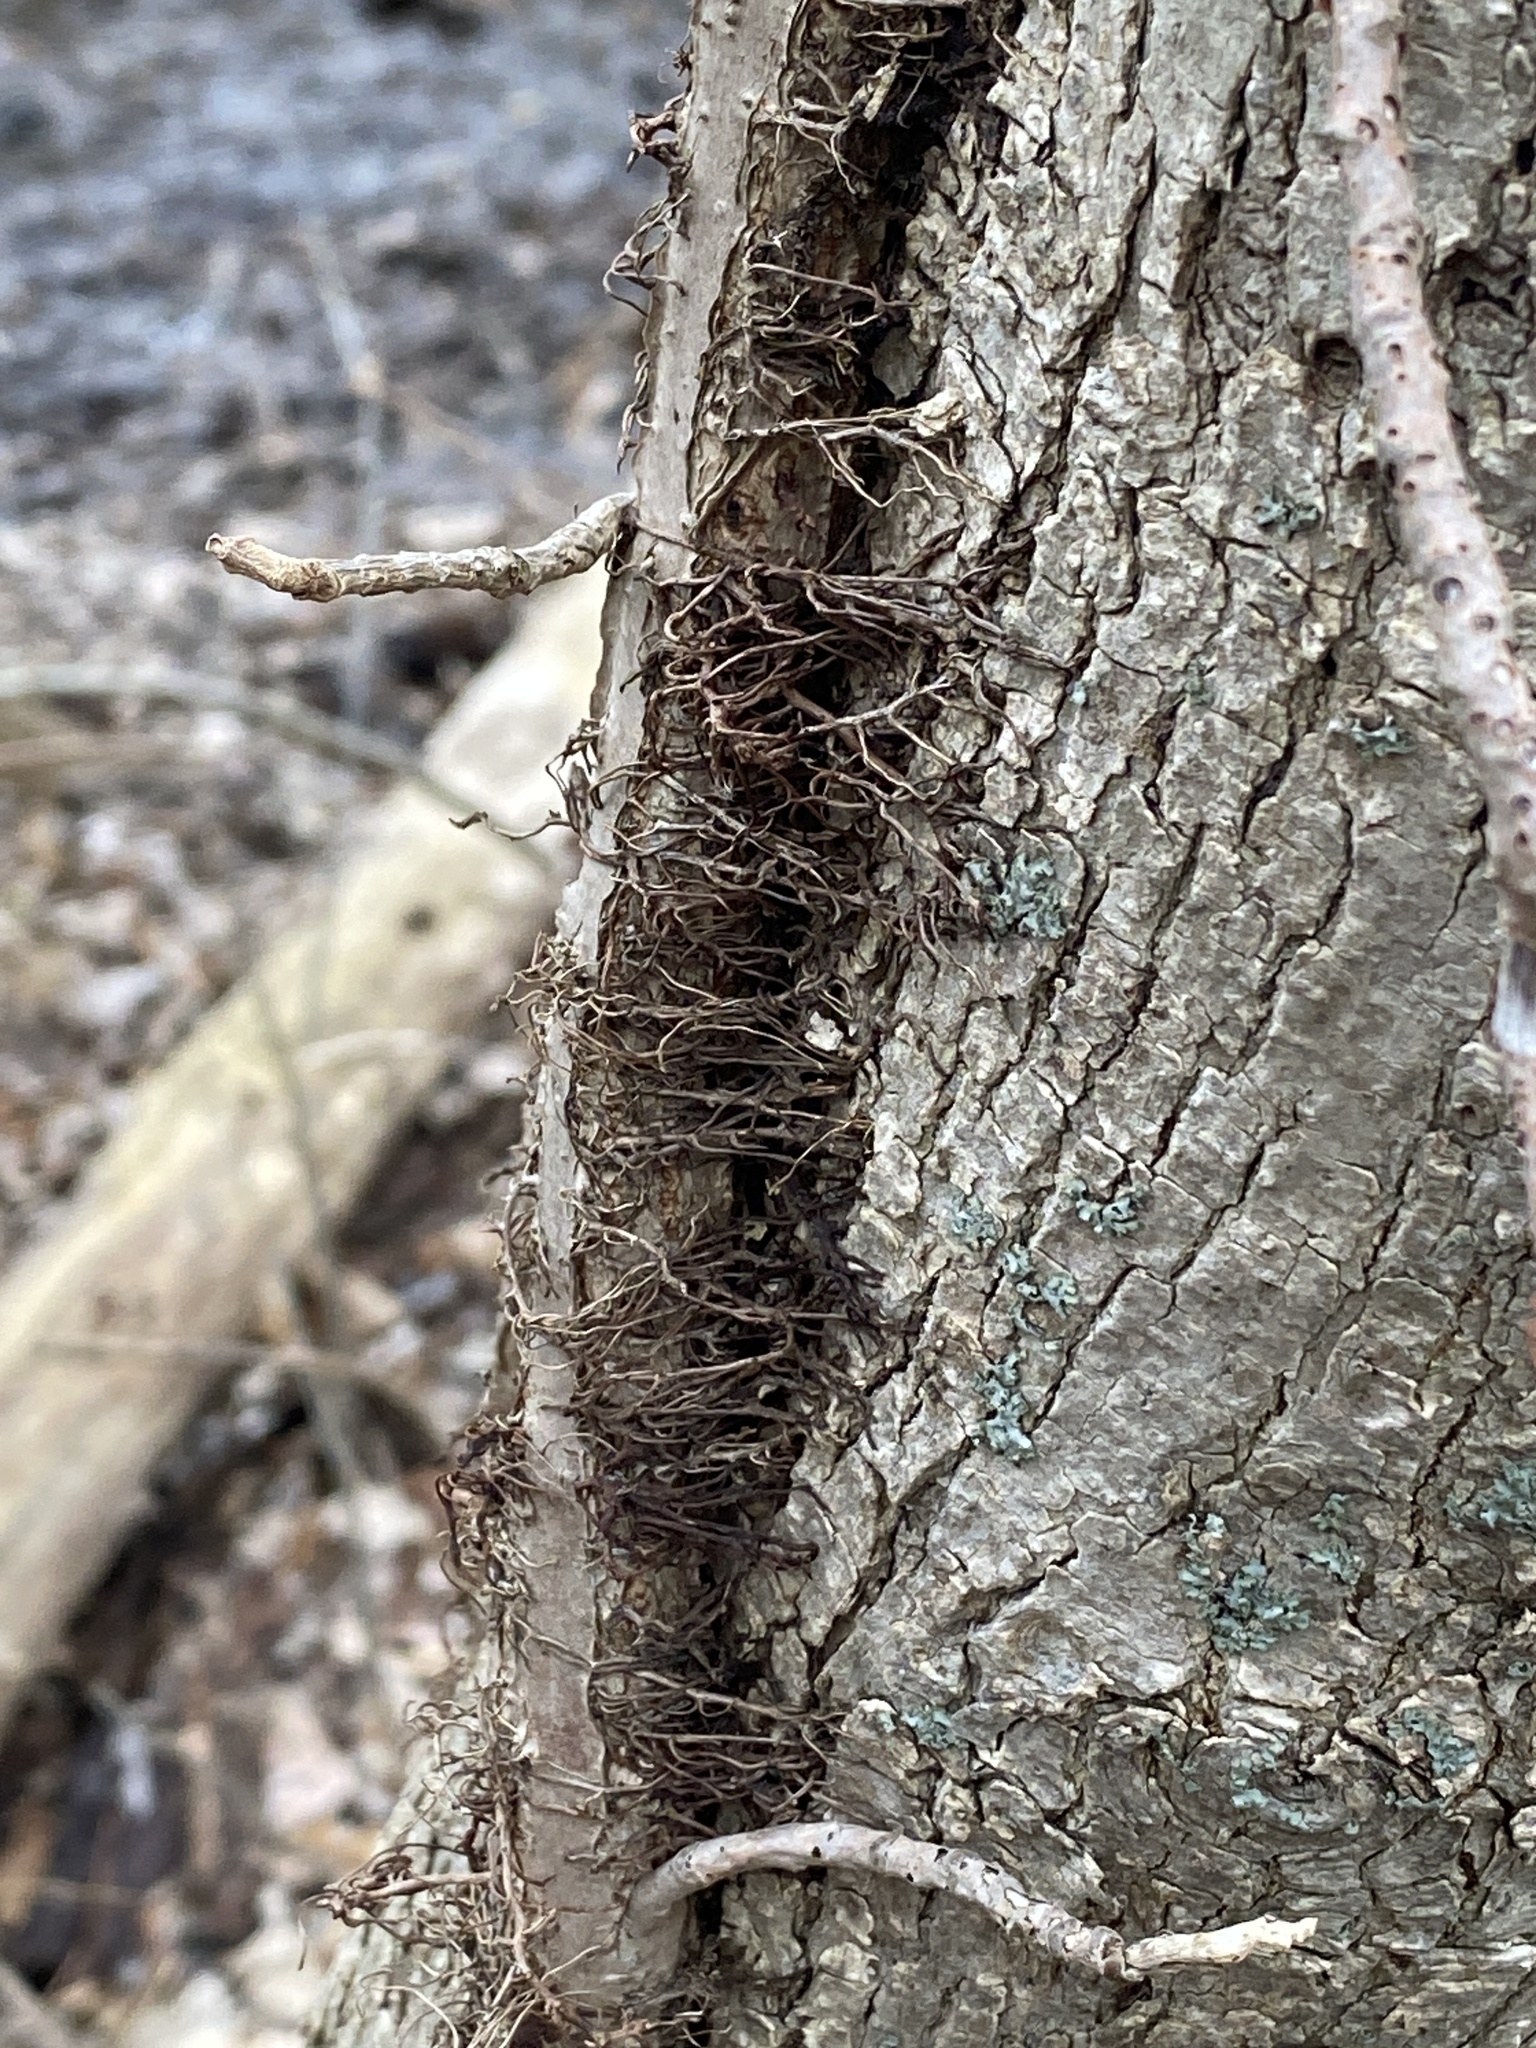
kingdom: Plantae
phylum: Tracheophyta
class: Magnoliopsida
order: Sapindales
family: Anacardiaceae
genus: Toxicodendron
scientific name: Toxicodendron radicans
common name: Poison ivy
